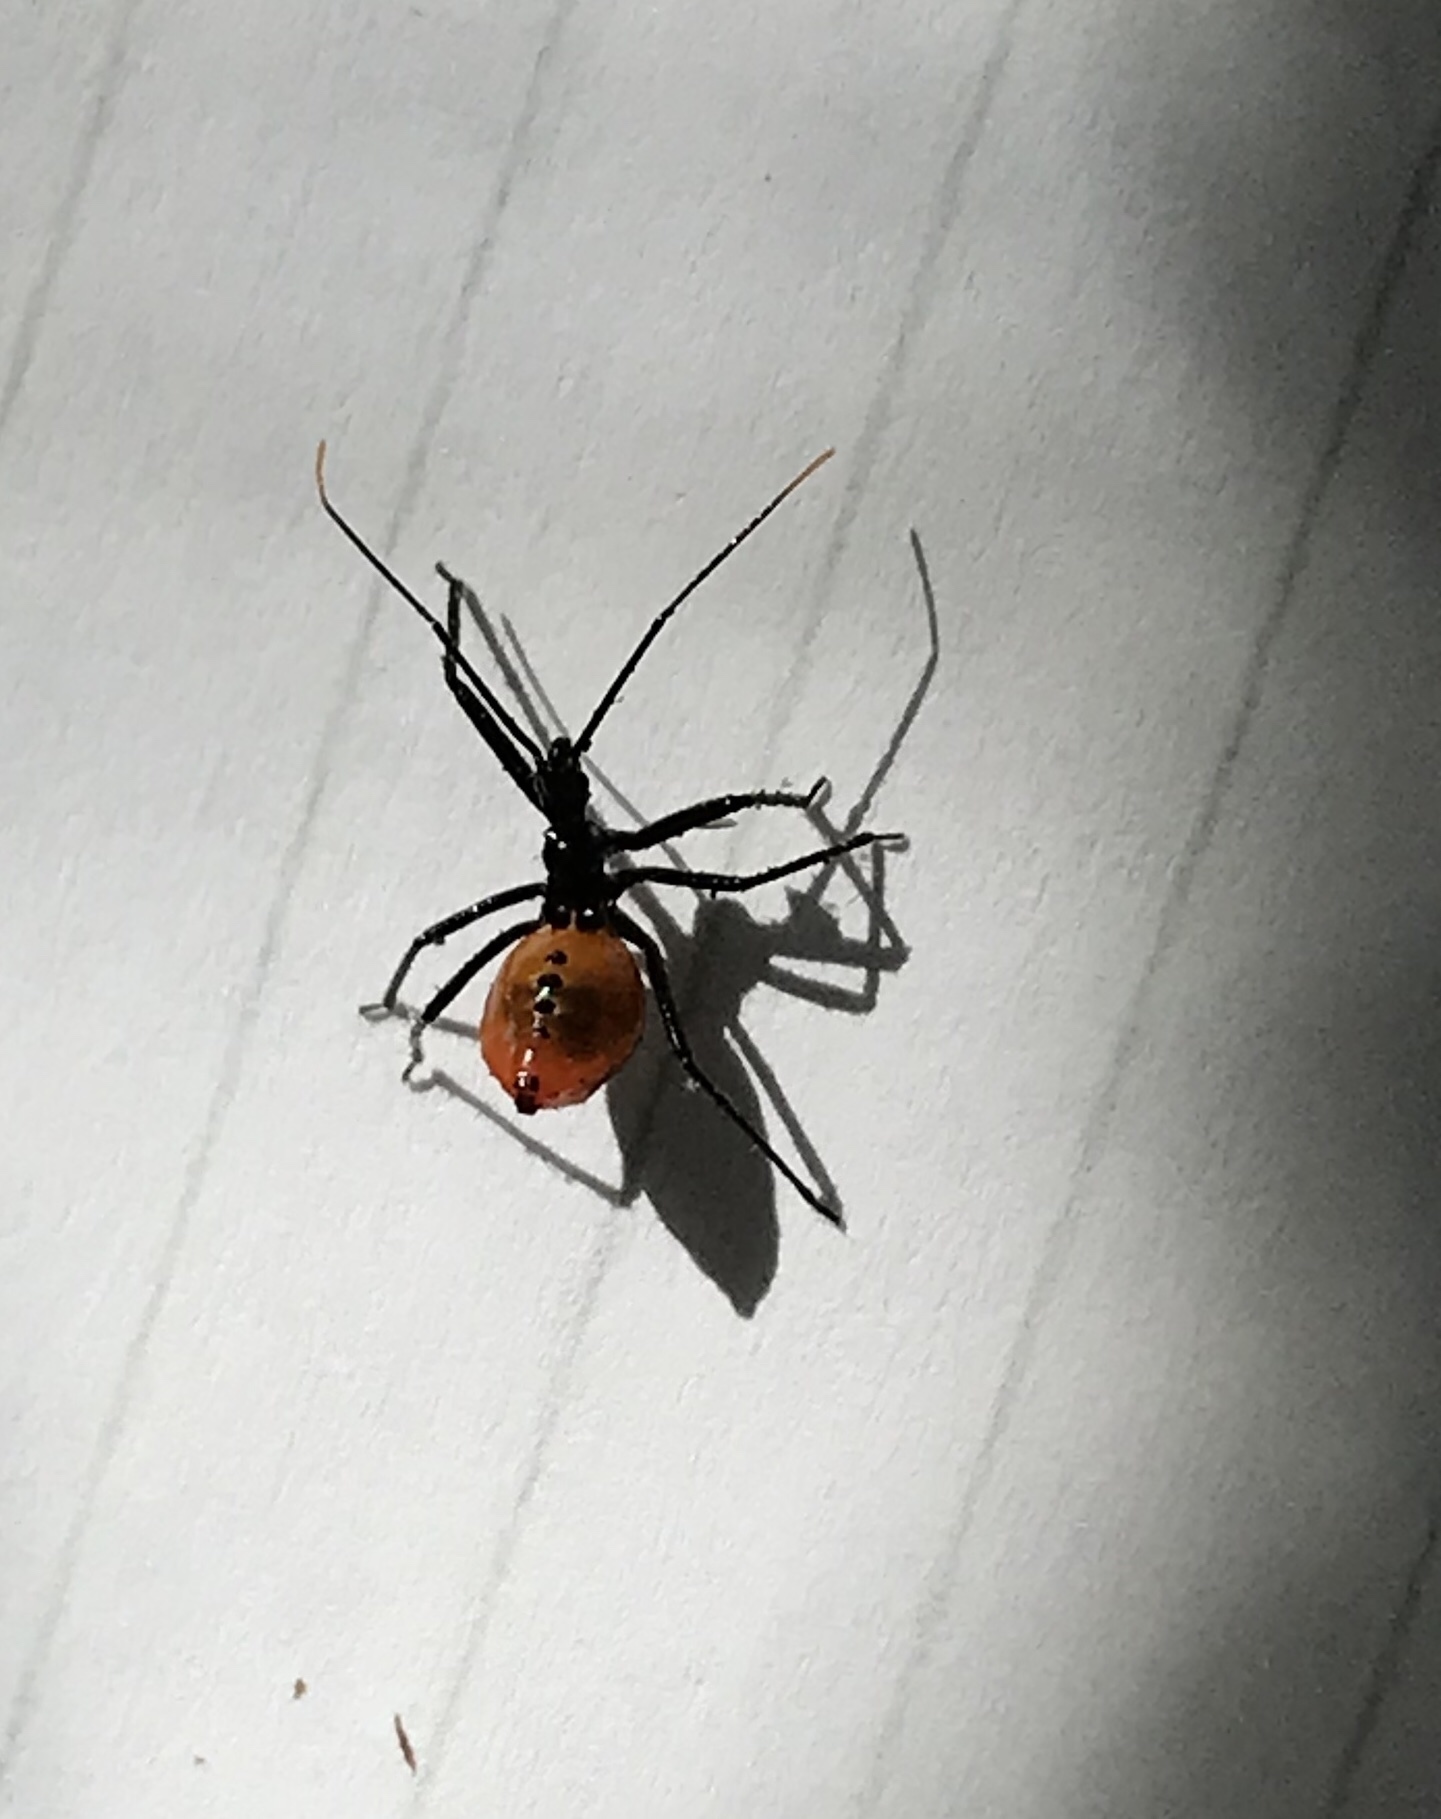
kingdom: Animalia
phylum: Arthropoda
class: Insecta
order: Hemiptera
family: Reduviidae
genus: Arilus
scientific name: Arilus cristatus
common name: North american wheel bug
